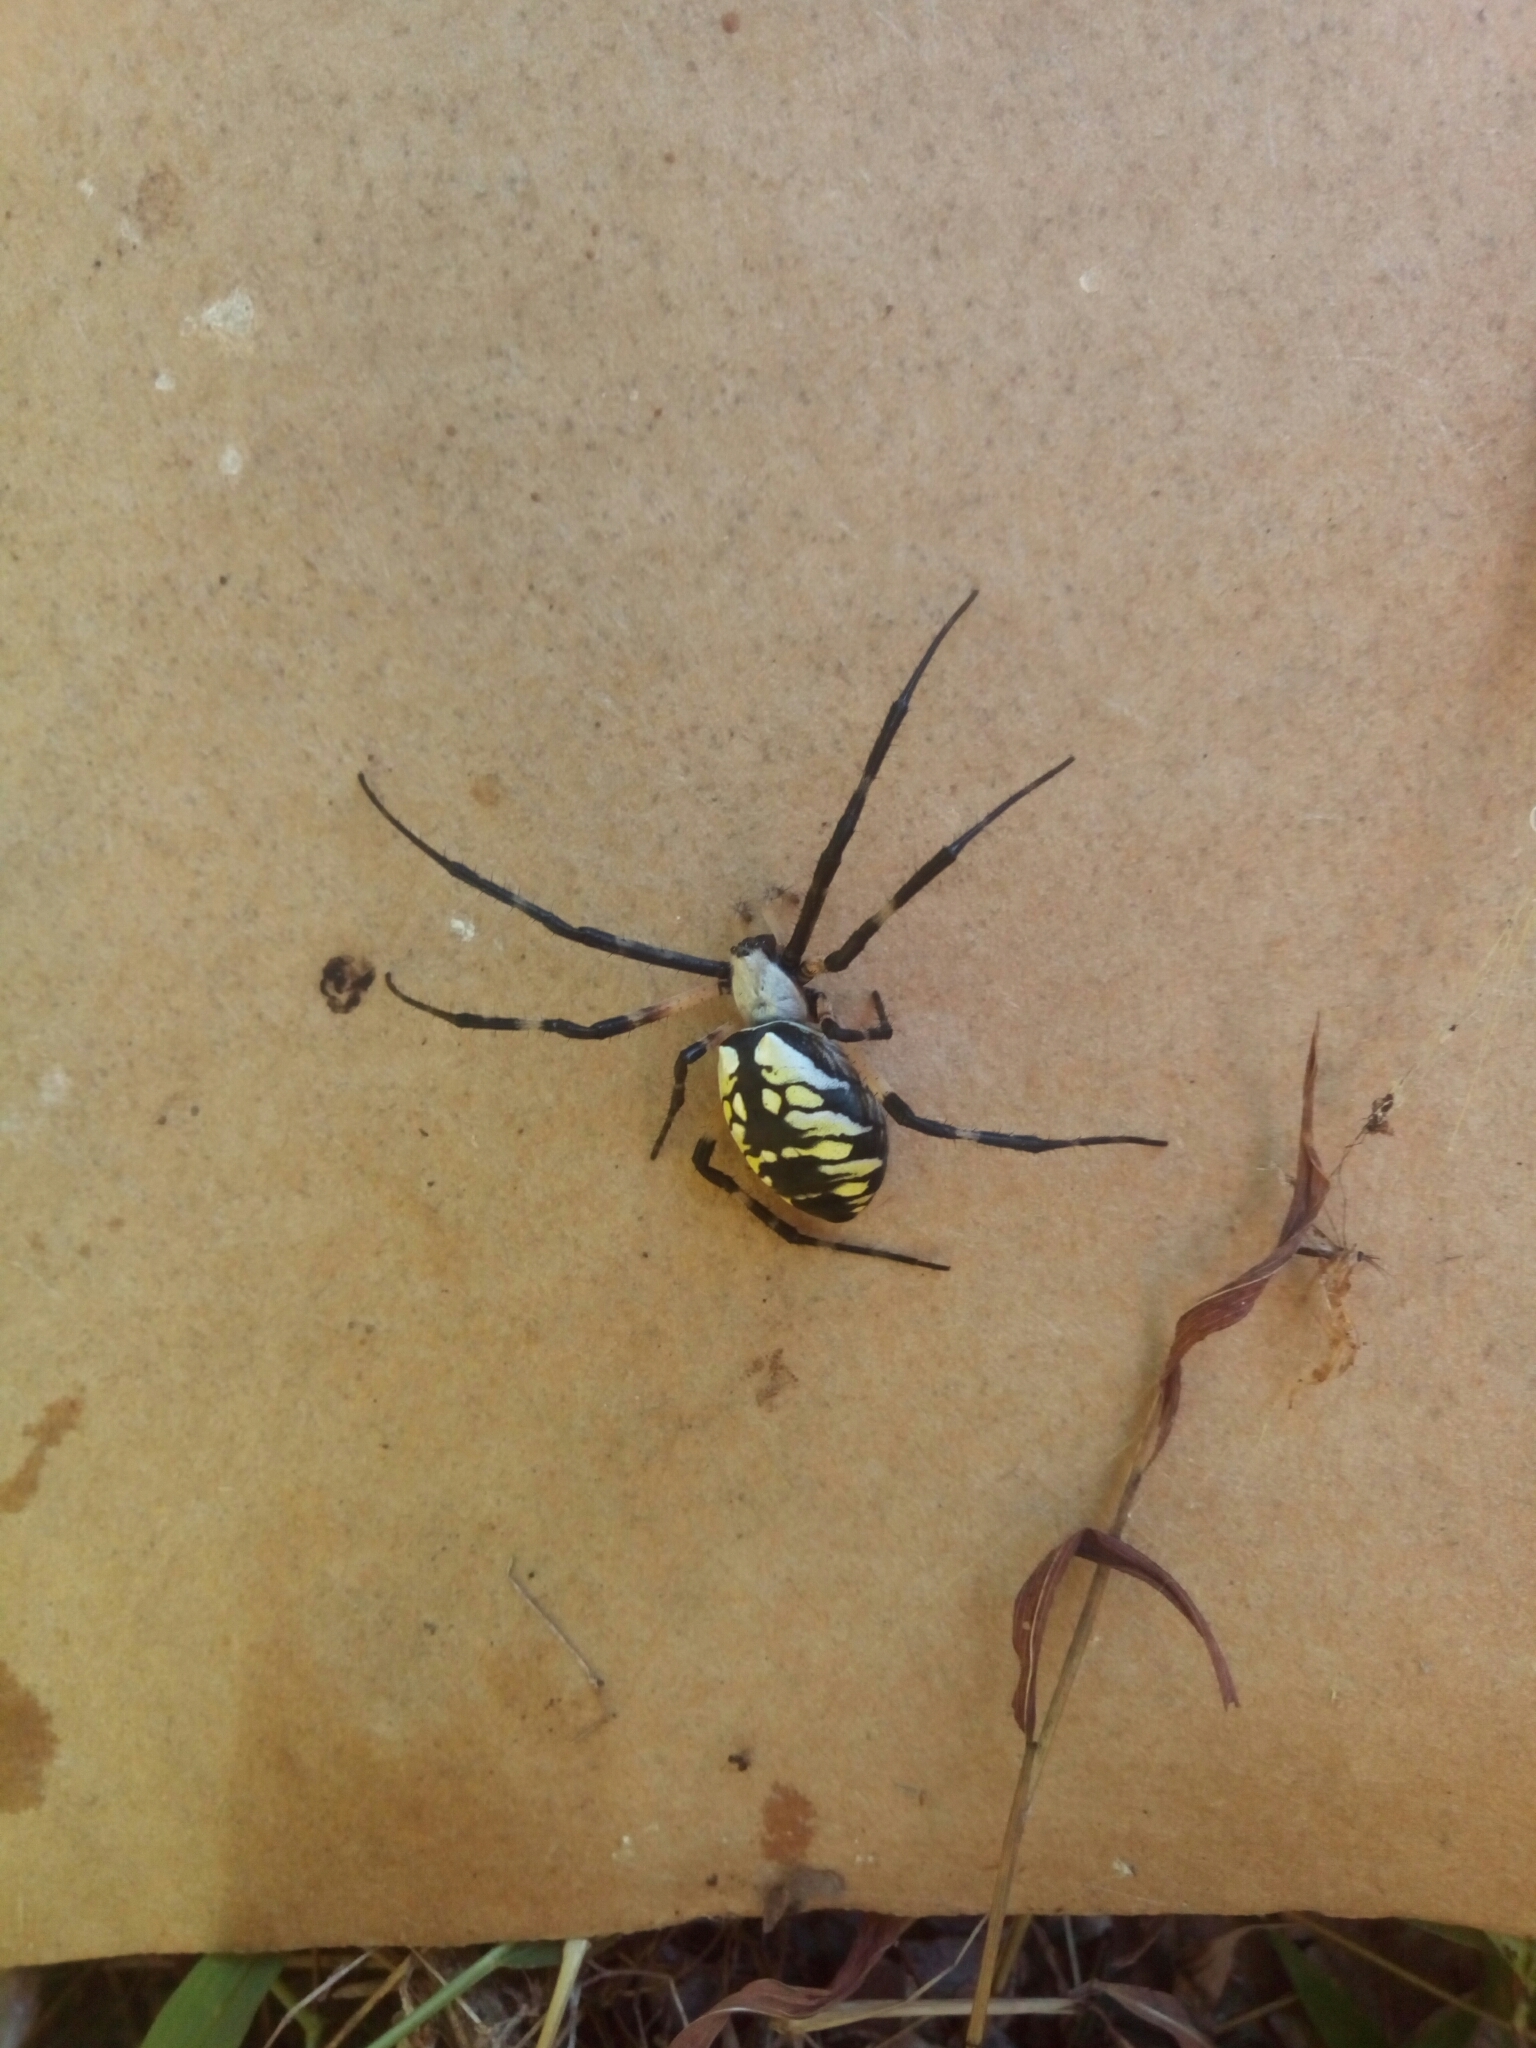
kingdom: Animalia
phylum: Arthropoda
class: Arachnida
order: Araneae
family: Araneidae
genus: Argiope
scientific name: Argiope aurantia
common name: Orb weavers
